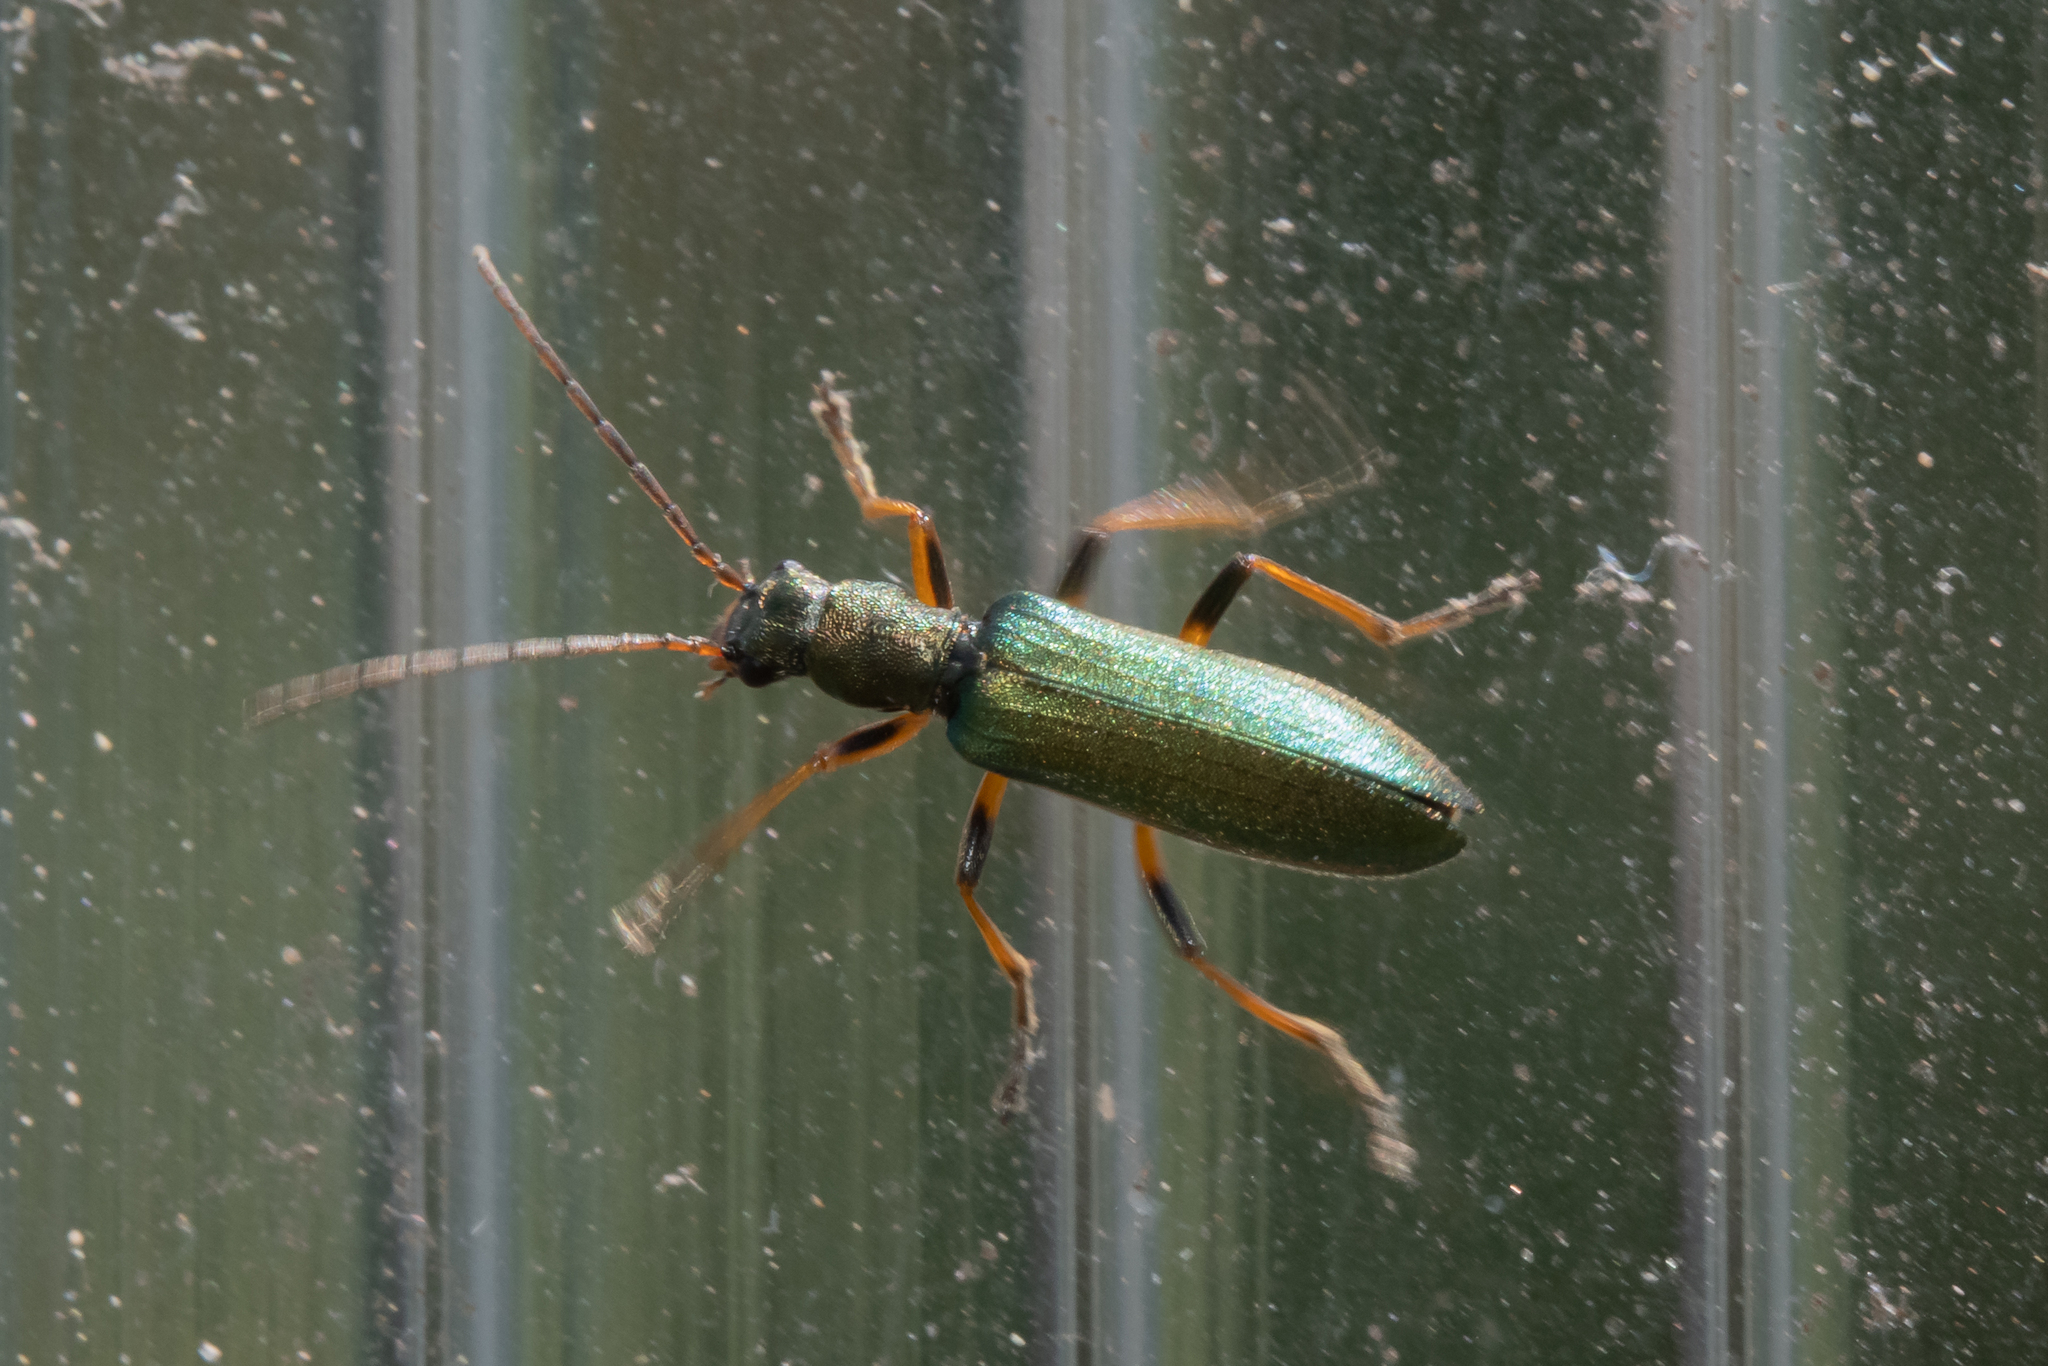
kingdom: Animalia
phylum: Arthropoda
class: Insecta
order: Coleoptera
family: Oedemeridae
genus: Chrysanthia
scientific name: Chrysanthia geniculata
